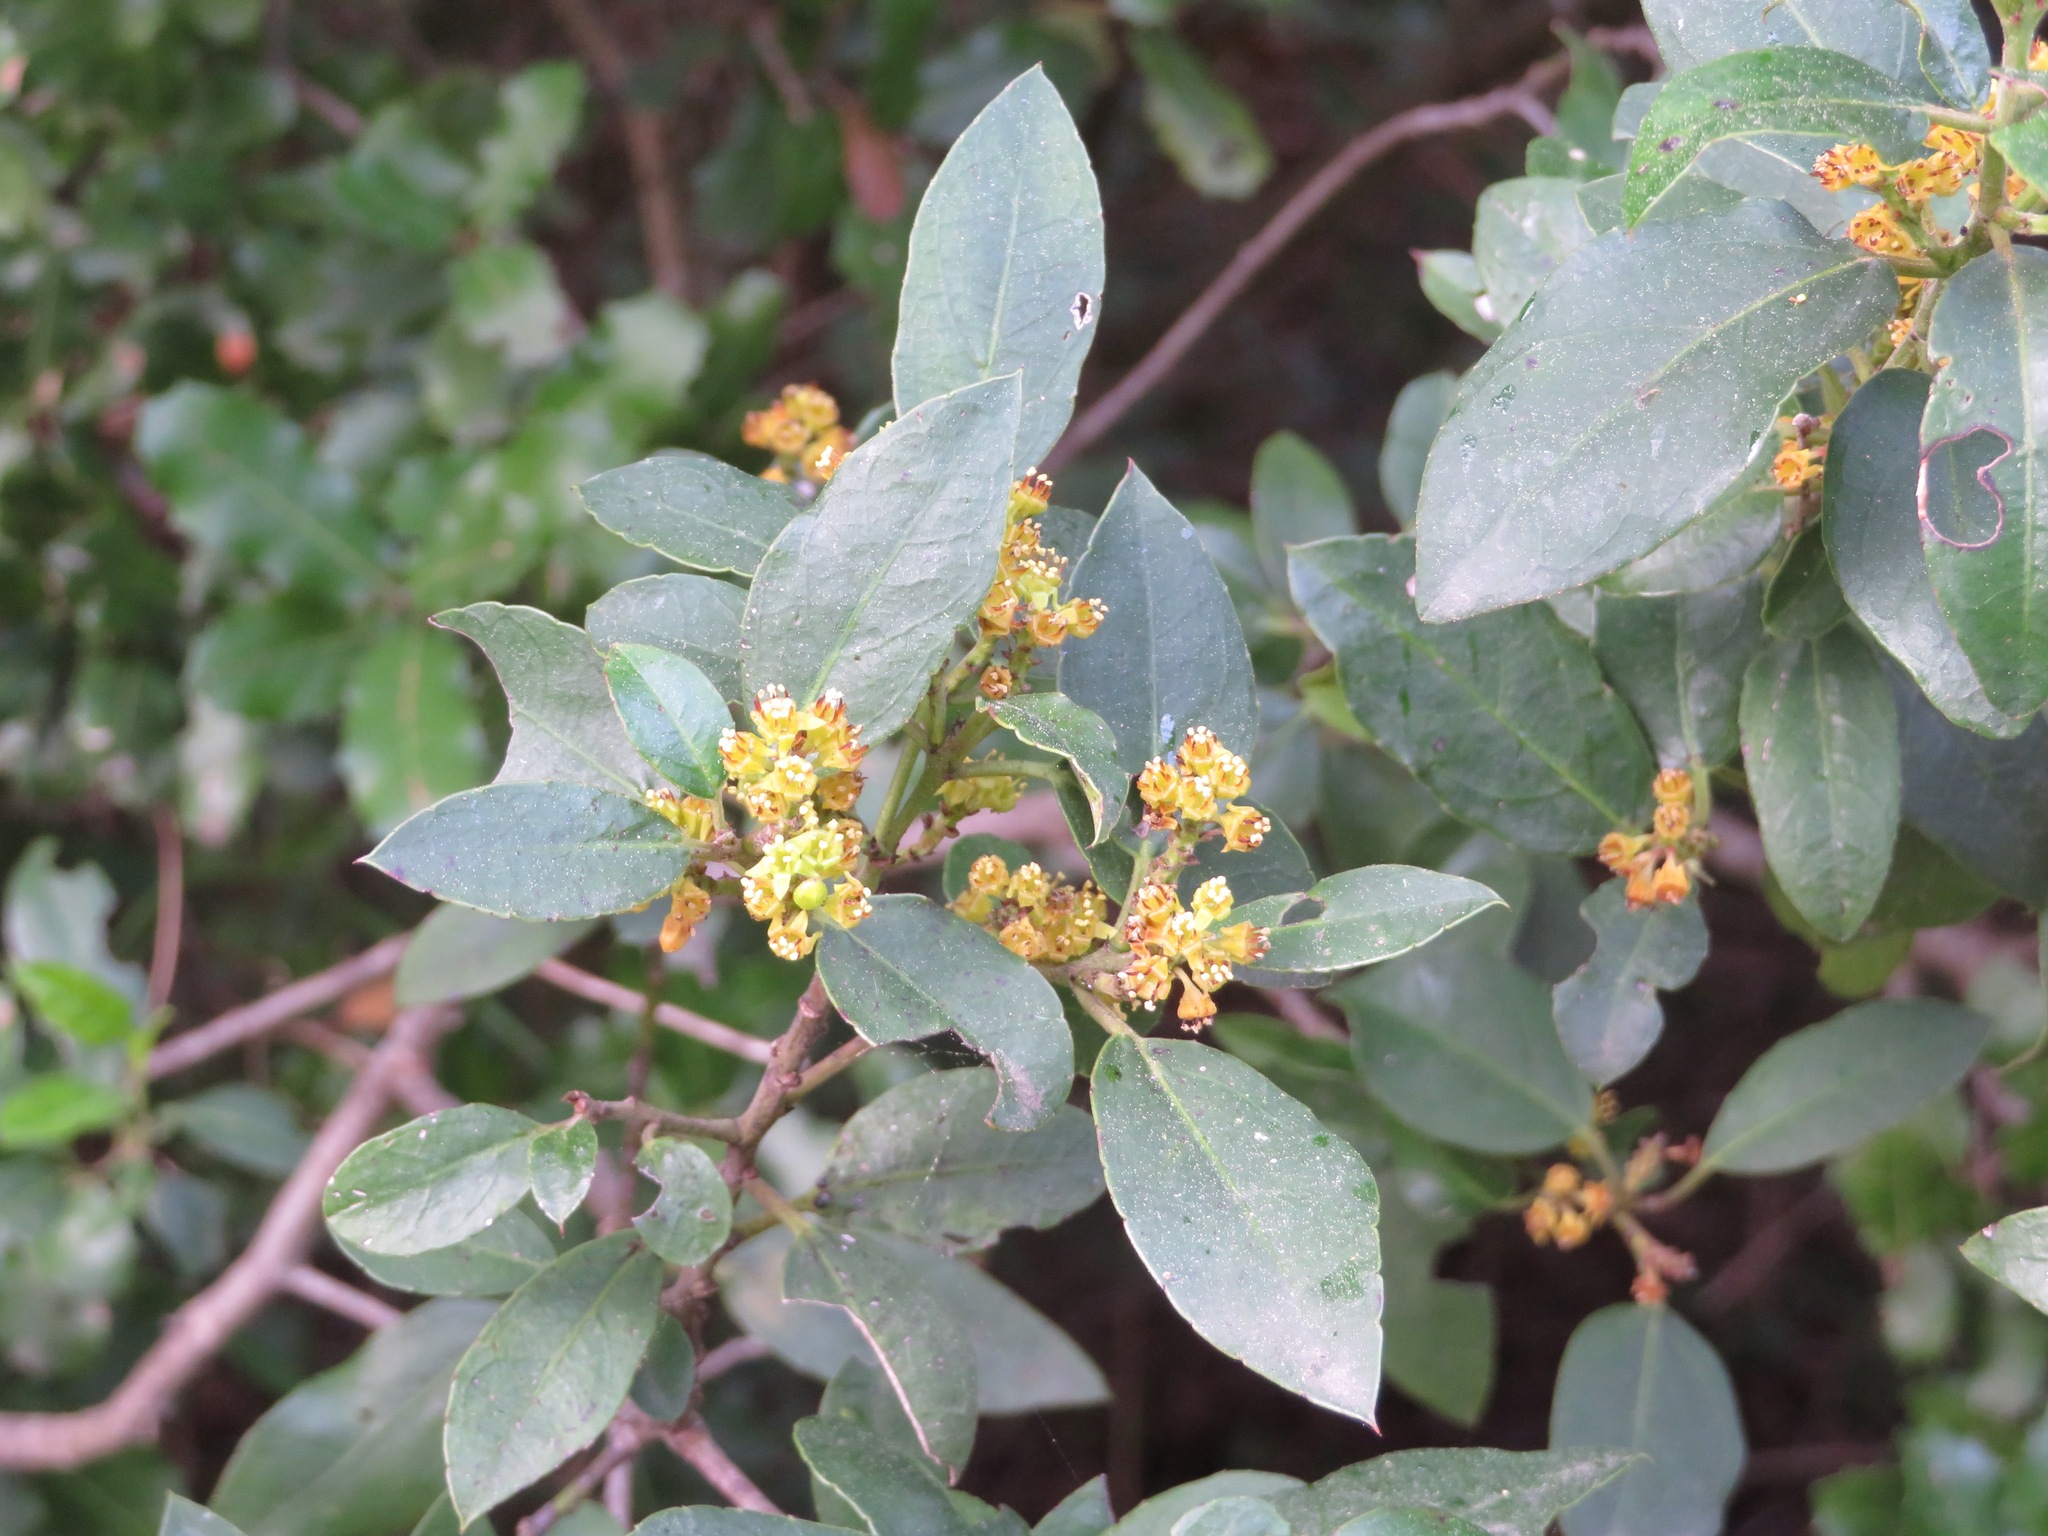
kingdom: Plantae
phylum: Tracheophyta
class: Magnoliopsida
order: Rosales
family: Rhamnaceae
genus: Rhamnus
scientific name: Rhamnus alaternus
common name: Mediterranean buckthorn
